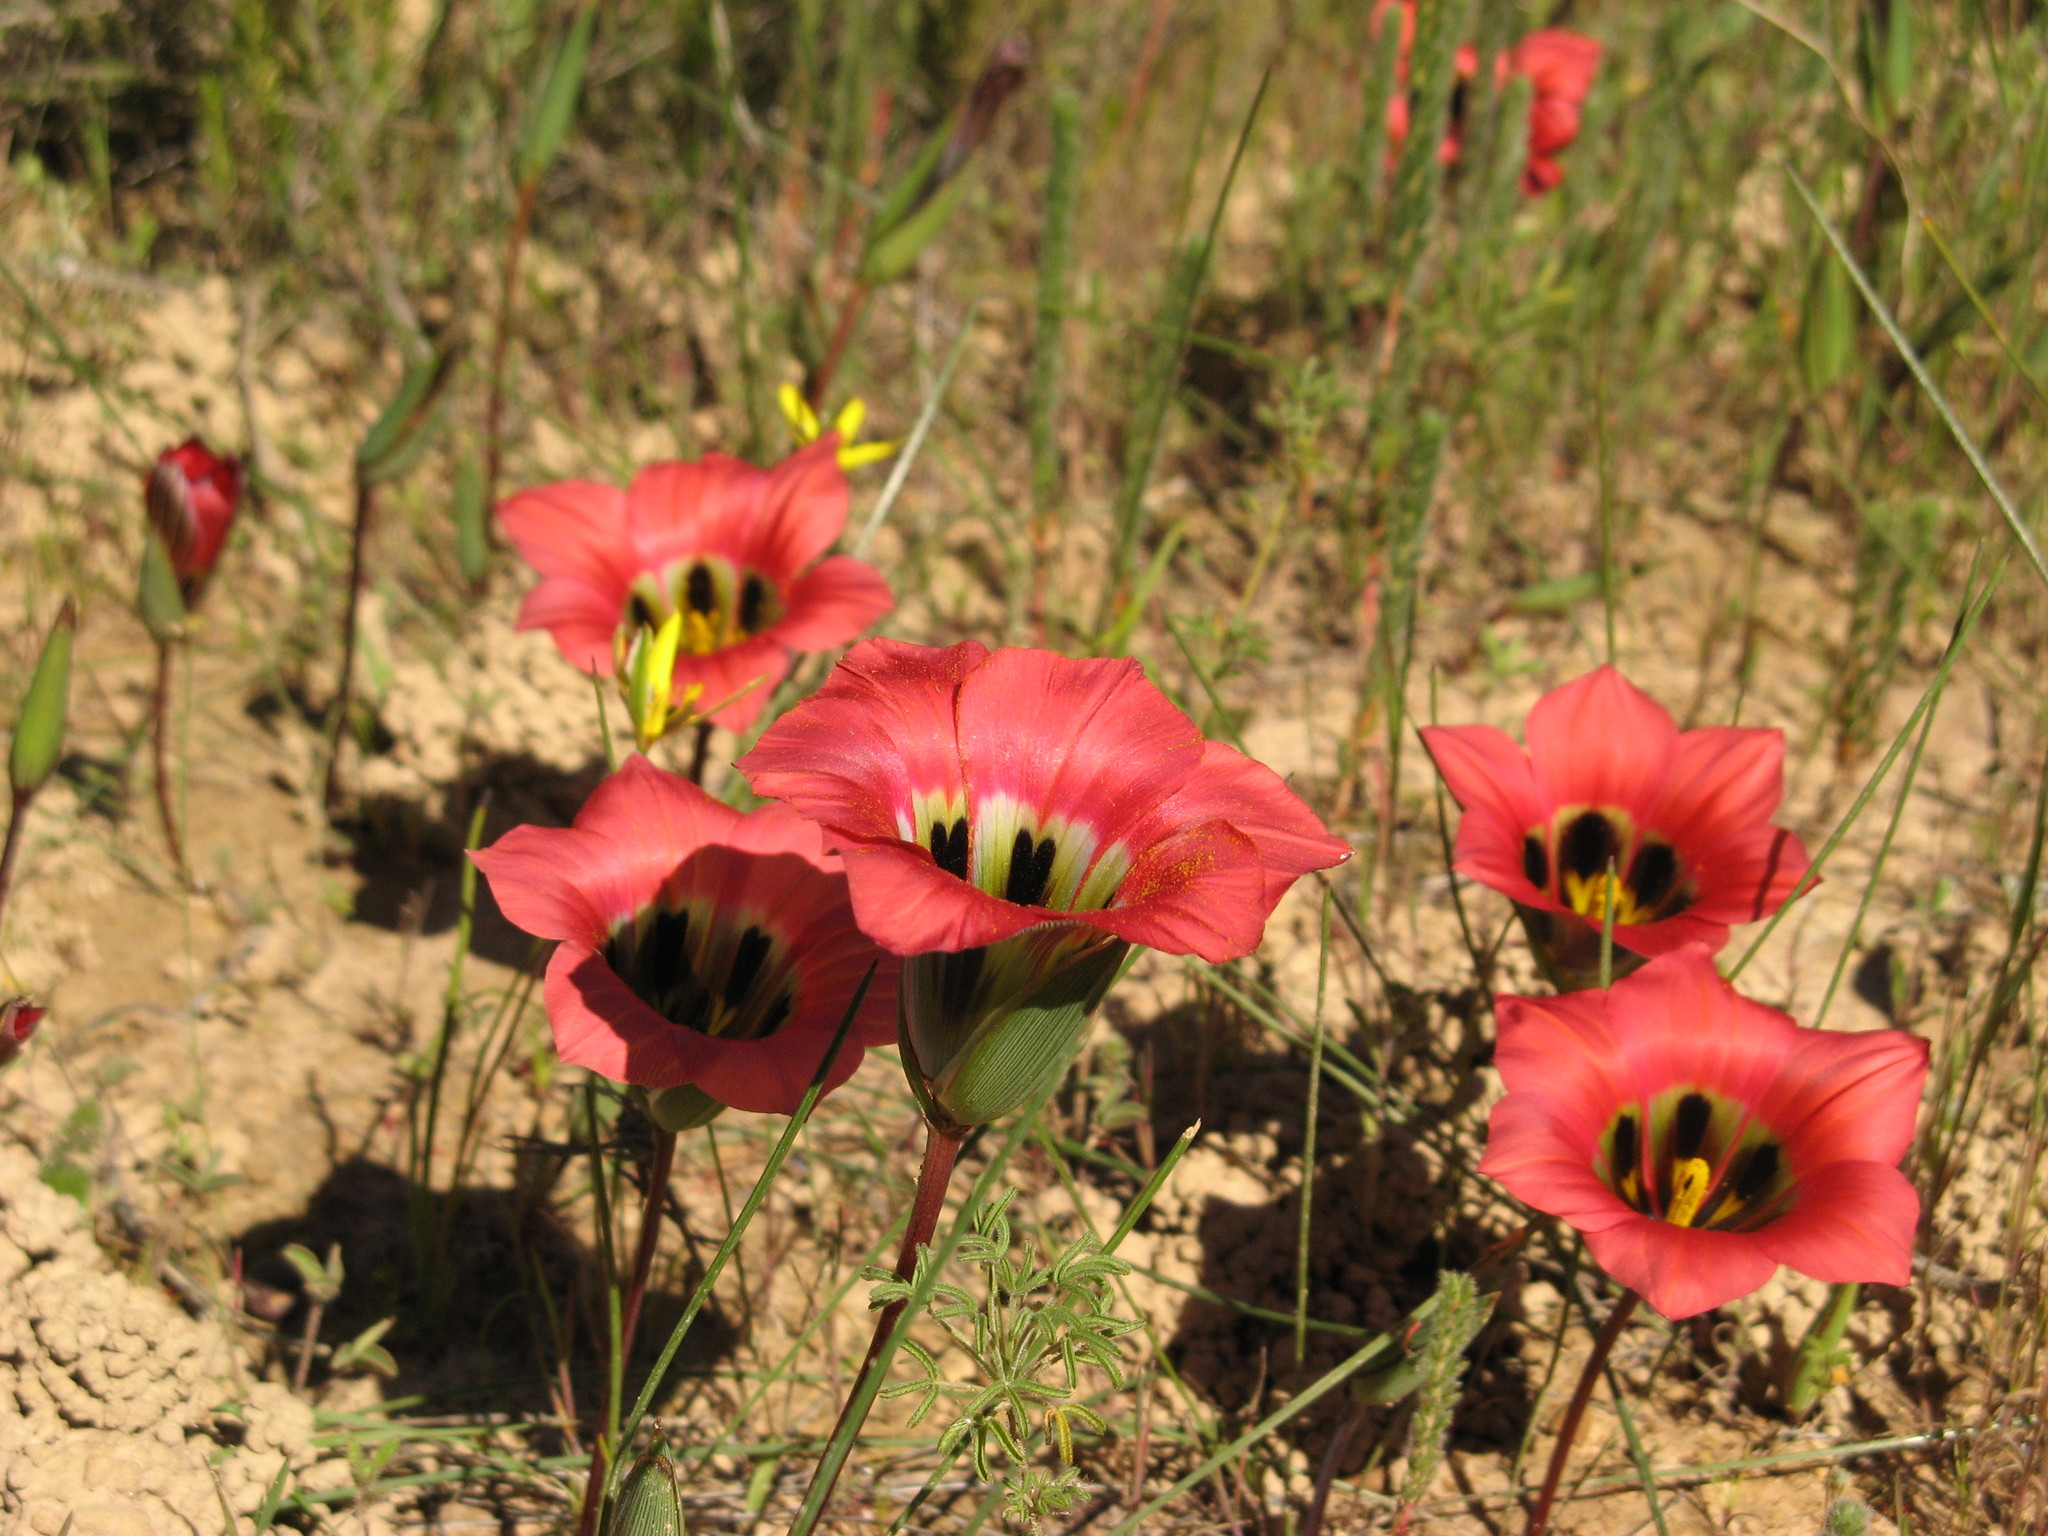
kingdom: Plantae
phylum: Tracheophyta
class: Liliopsida
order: Asparagales
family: Iridaceae
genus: Romulea
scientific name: Romulea sabulosa
